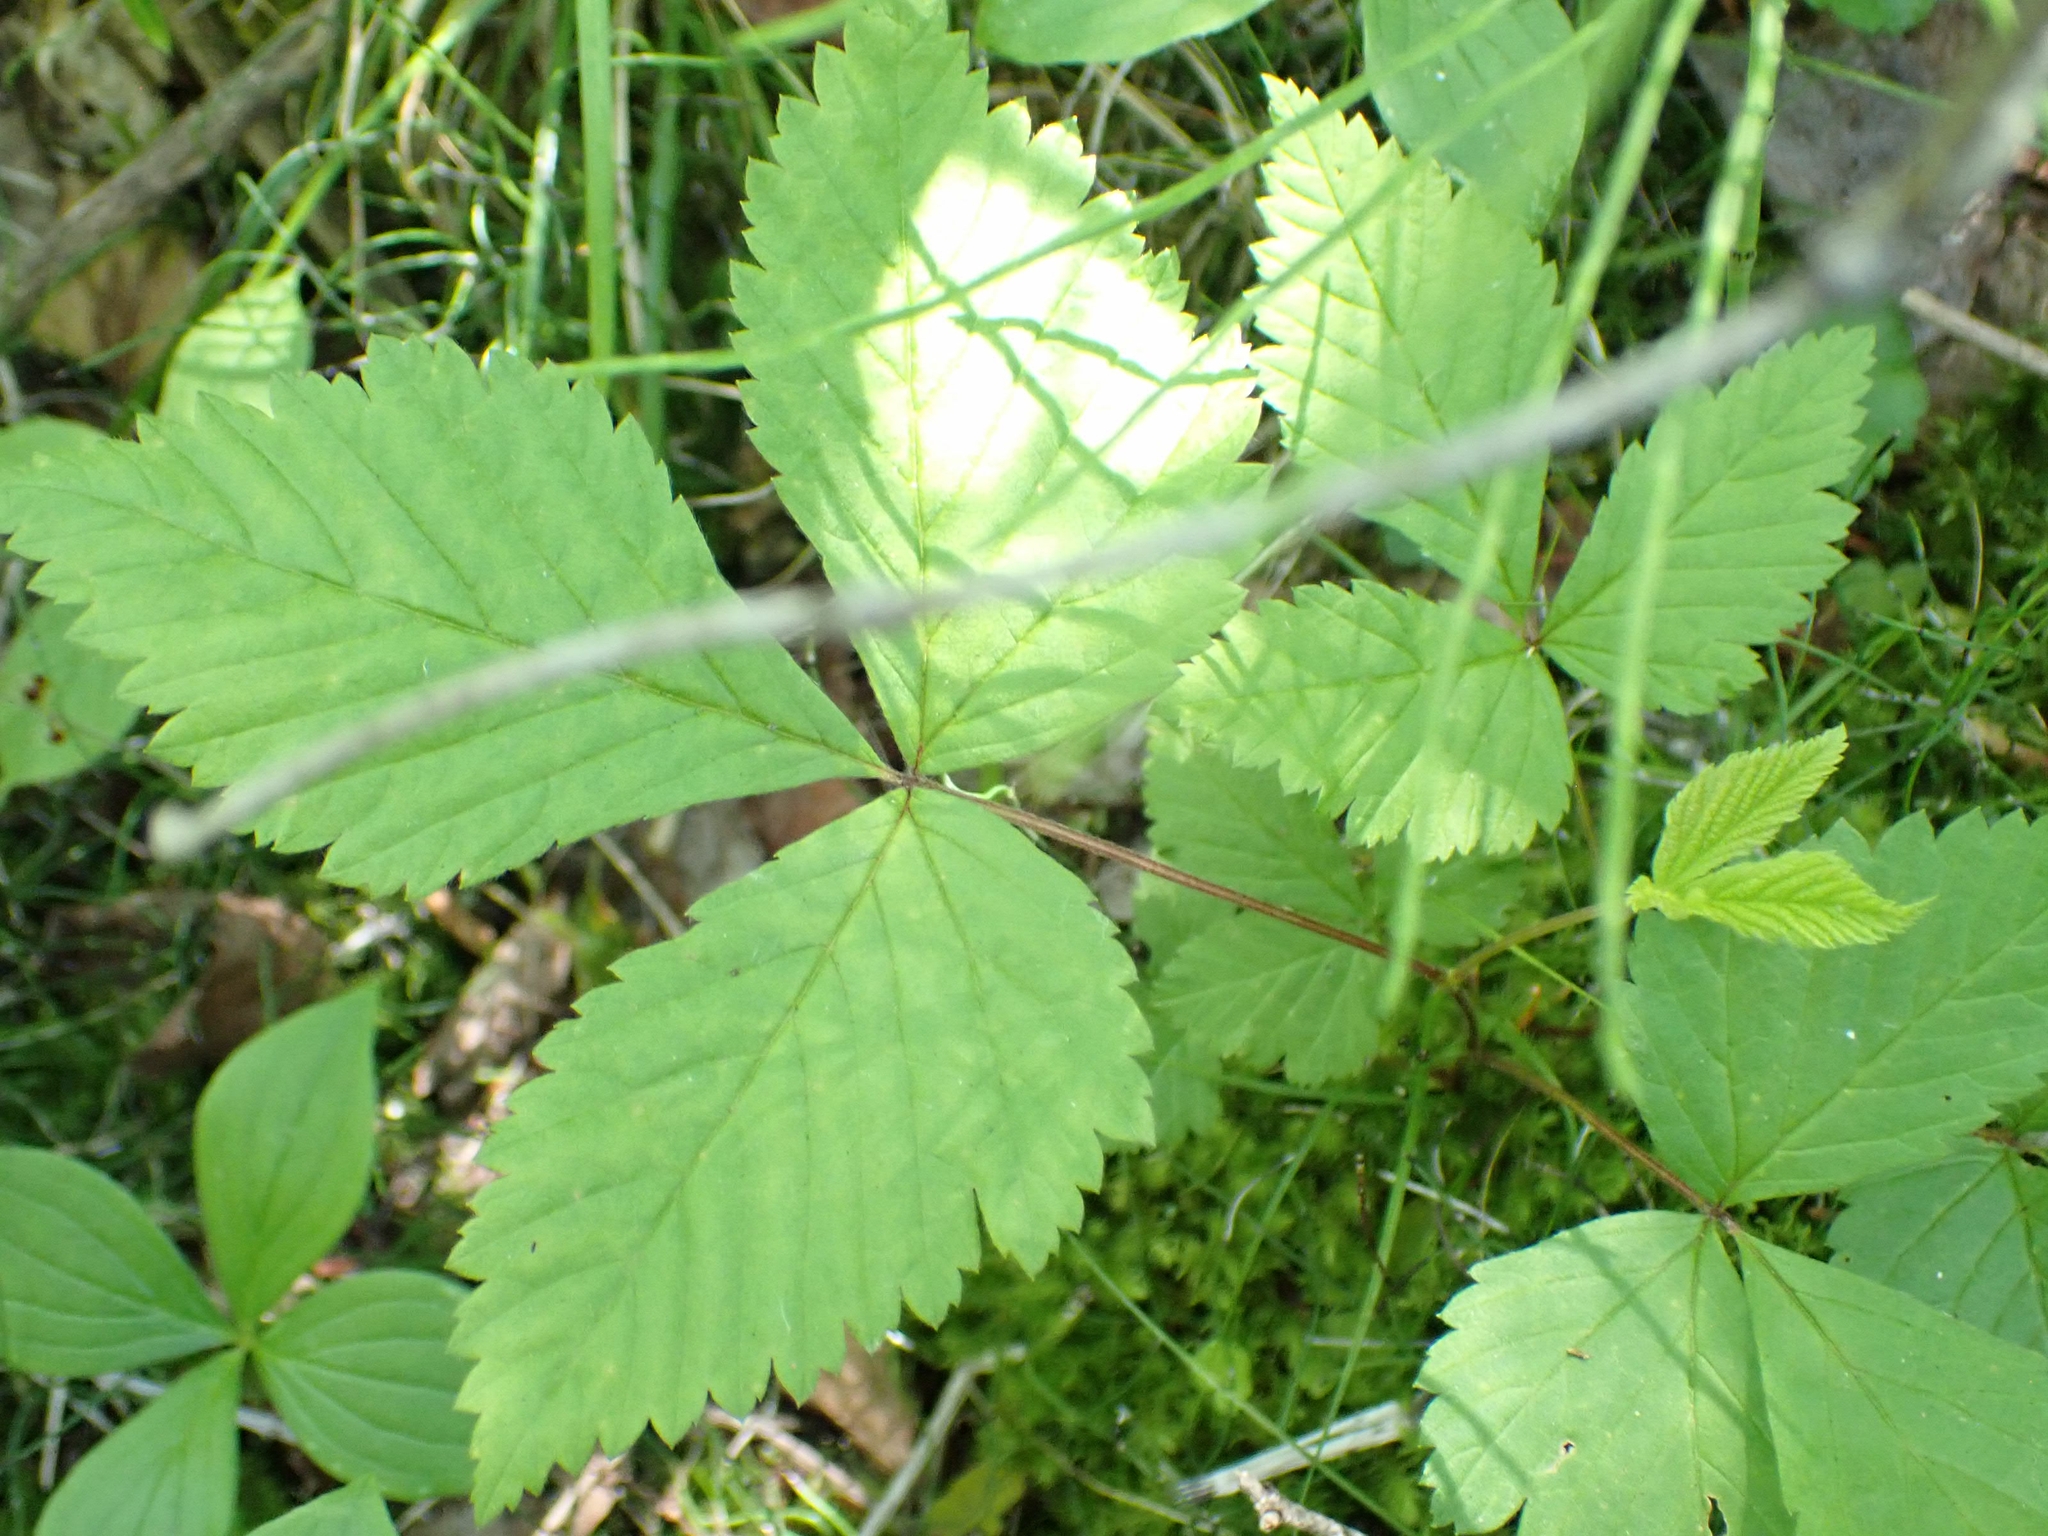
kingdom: Plantae
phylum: Tracheophyta
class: Magnoliopsida
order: Rosales
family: Rosaceae
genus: Rubus
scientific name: Rubus pubescens
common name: Dwarf raspberry
